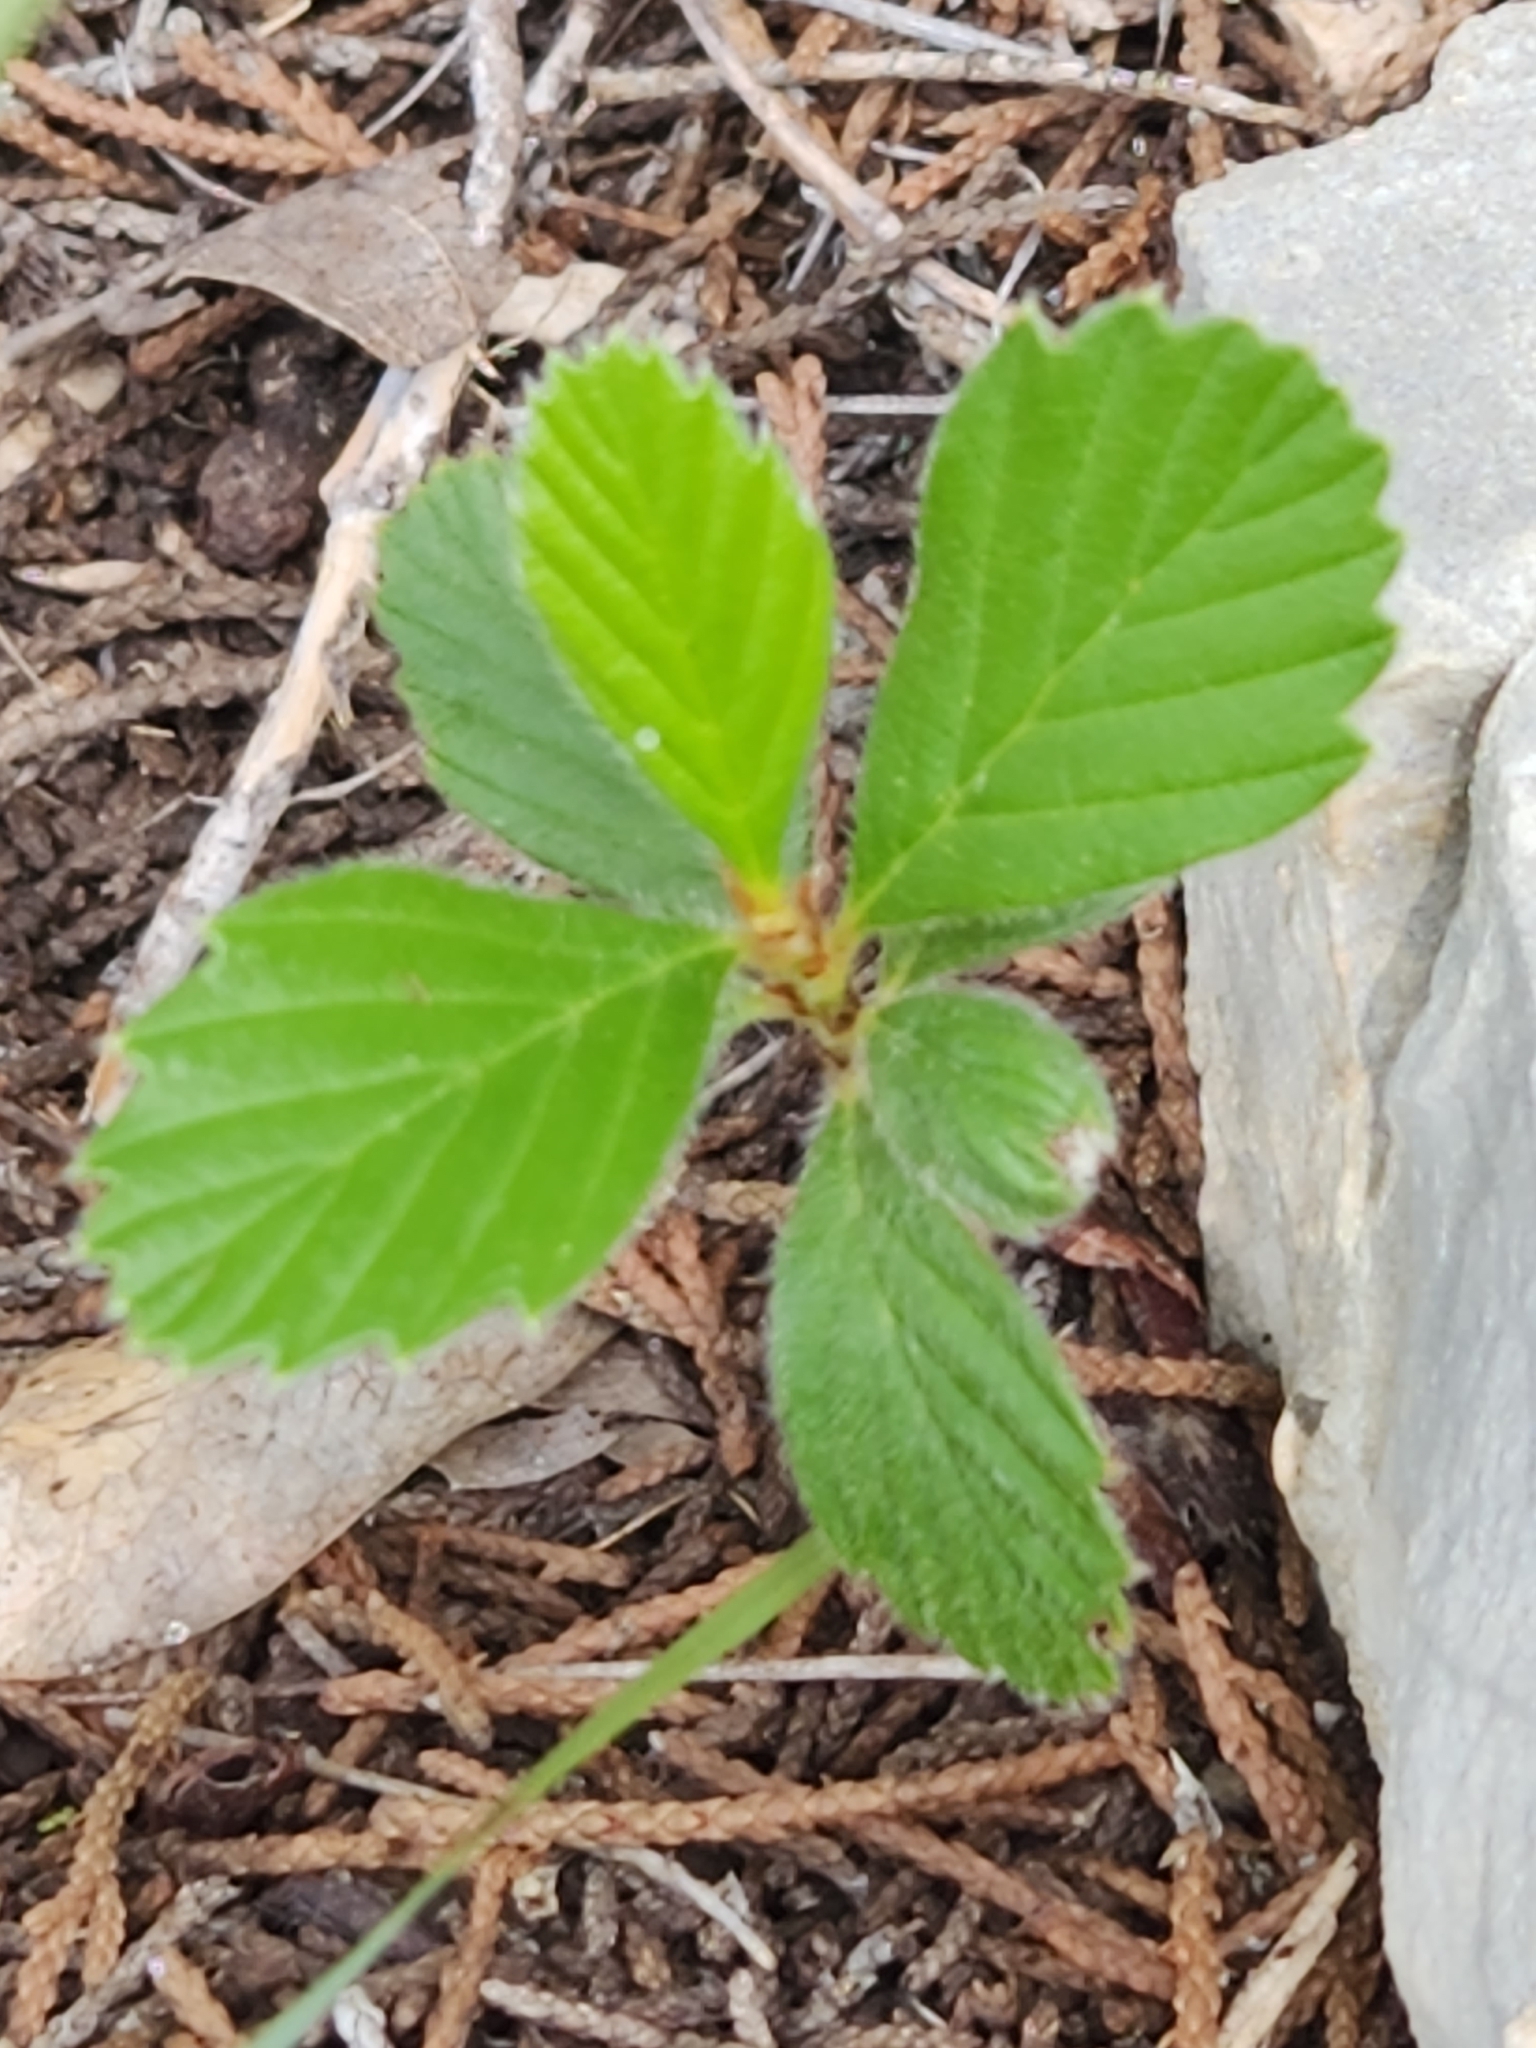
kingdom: Plantae
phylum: Tracheophyta
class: Magnoliopsida
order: Rosales
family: Rosaceae
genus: Cercocarpus
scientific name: Cercocarpus montanus
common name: Alder-leaf cercocarpus
